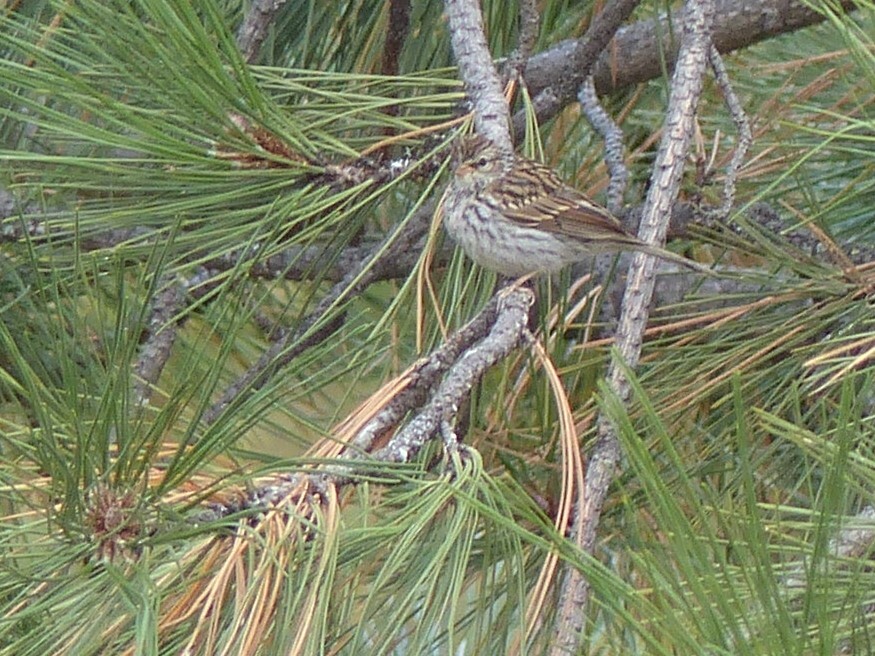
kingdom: Animalia
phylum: Chordata
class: Aves
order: Passeriformes
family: Passerellidae
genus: Spizella
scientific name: Spizella passerina
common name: Chipping sparrow
